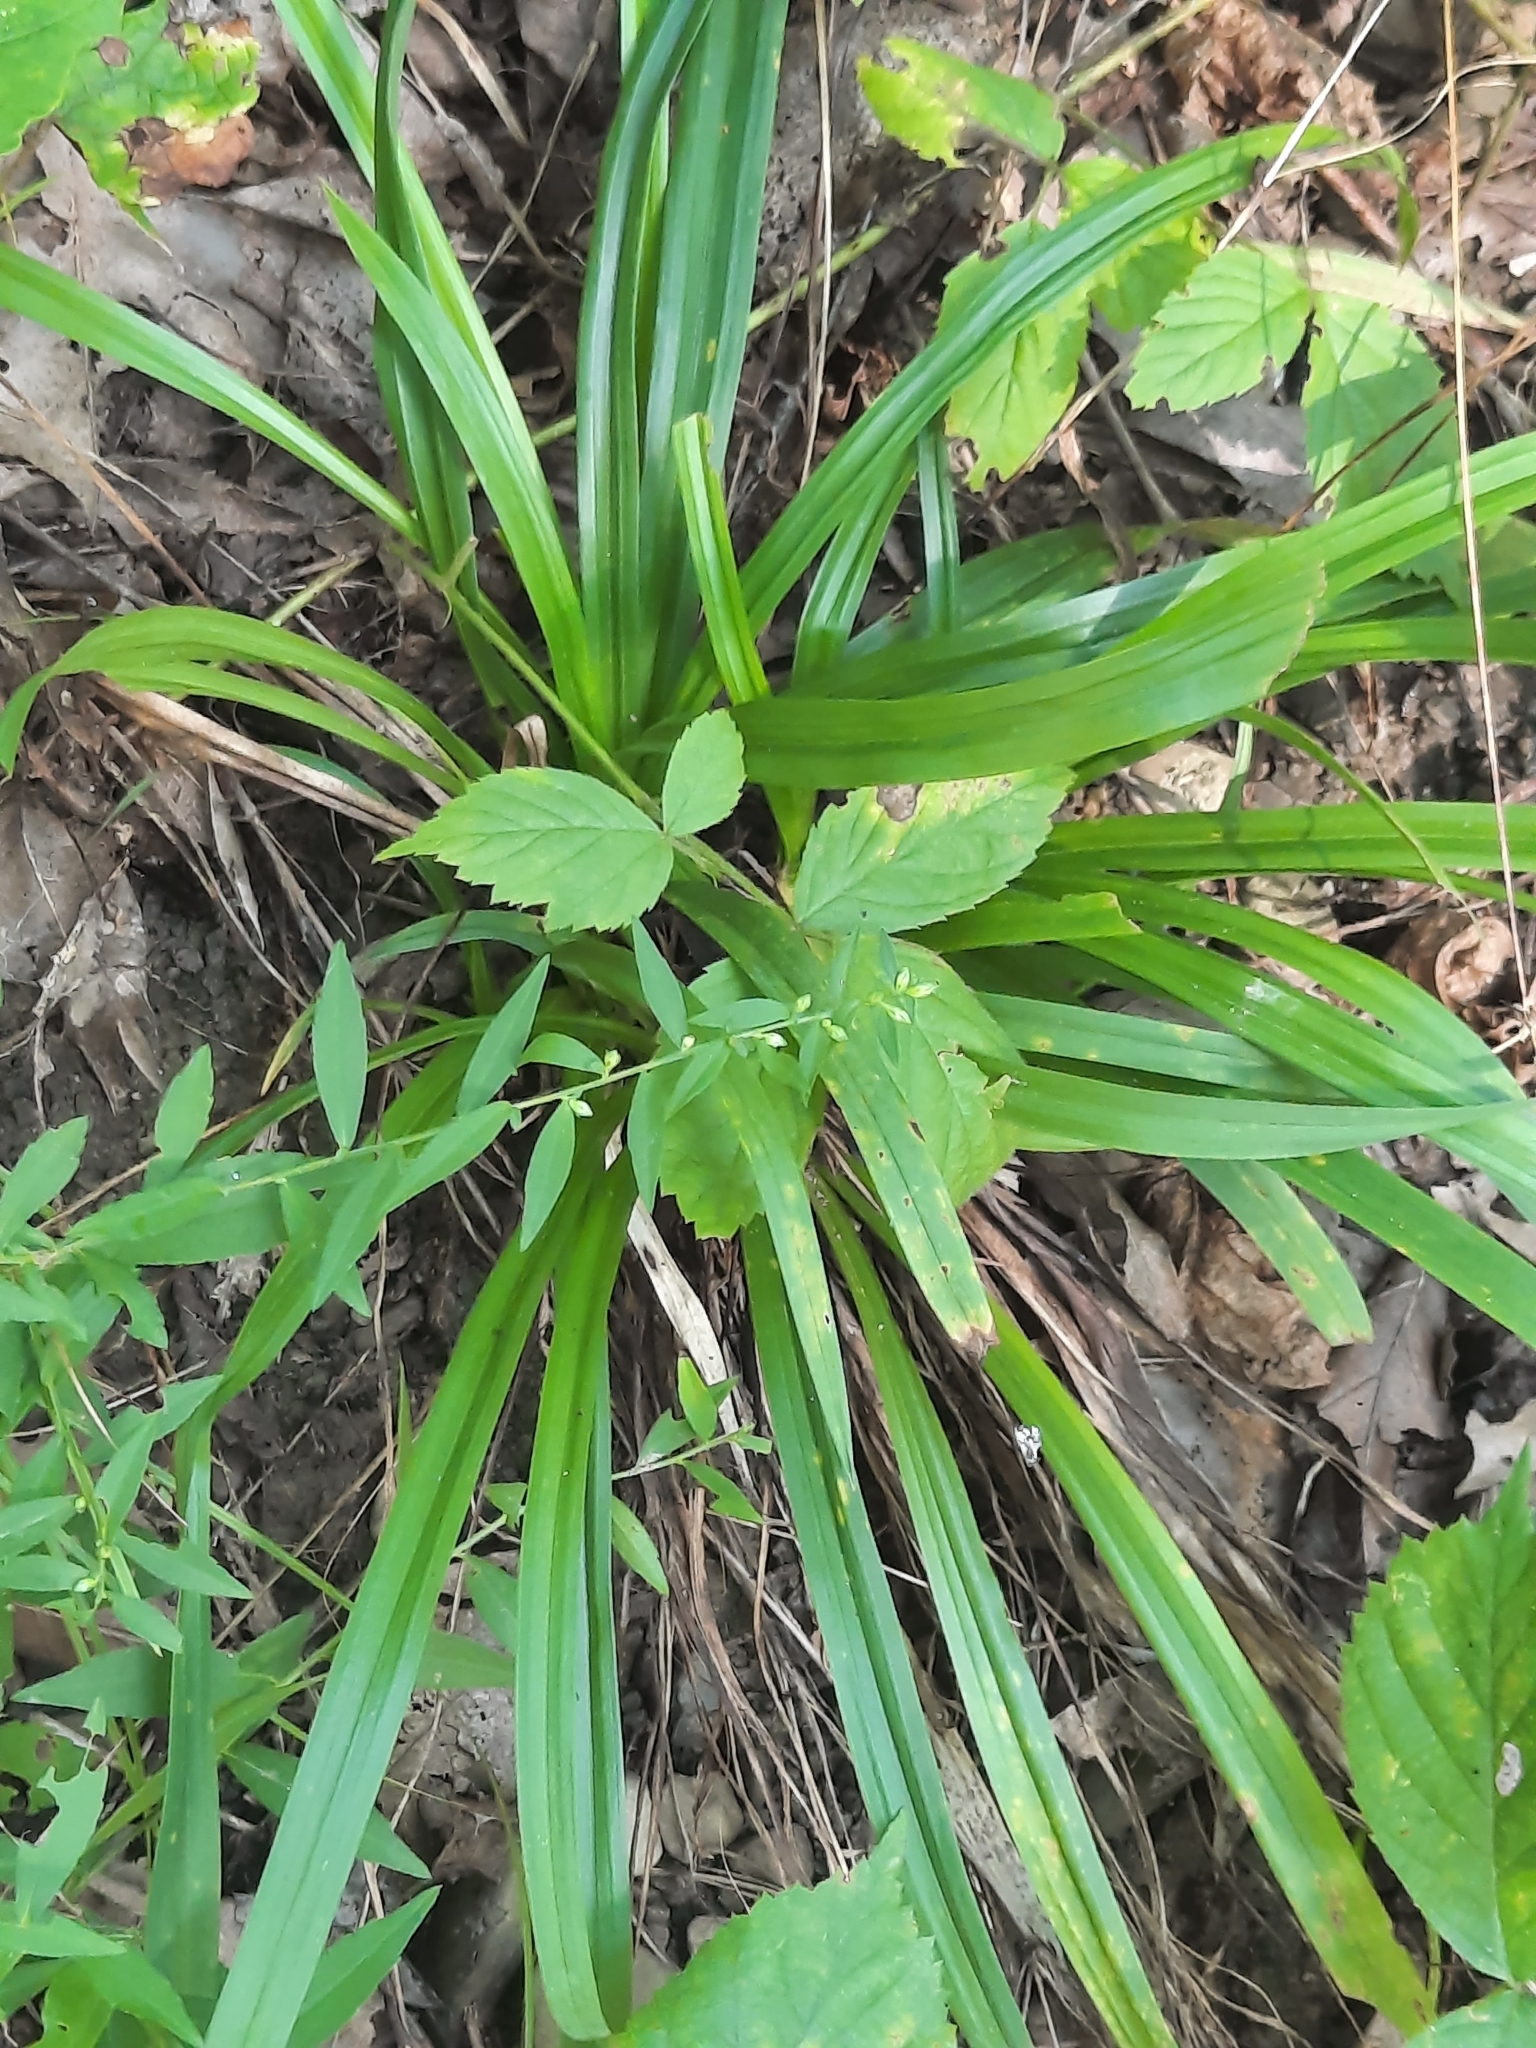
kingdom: Plantae
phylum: Tracheophyta
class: Liliopsida
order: Poales
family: Cyperaceae
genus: Carex
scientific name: Carex
